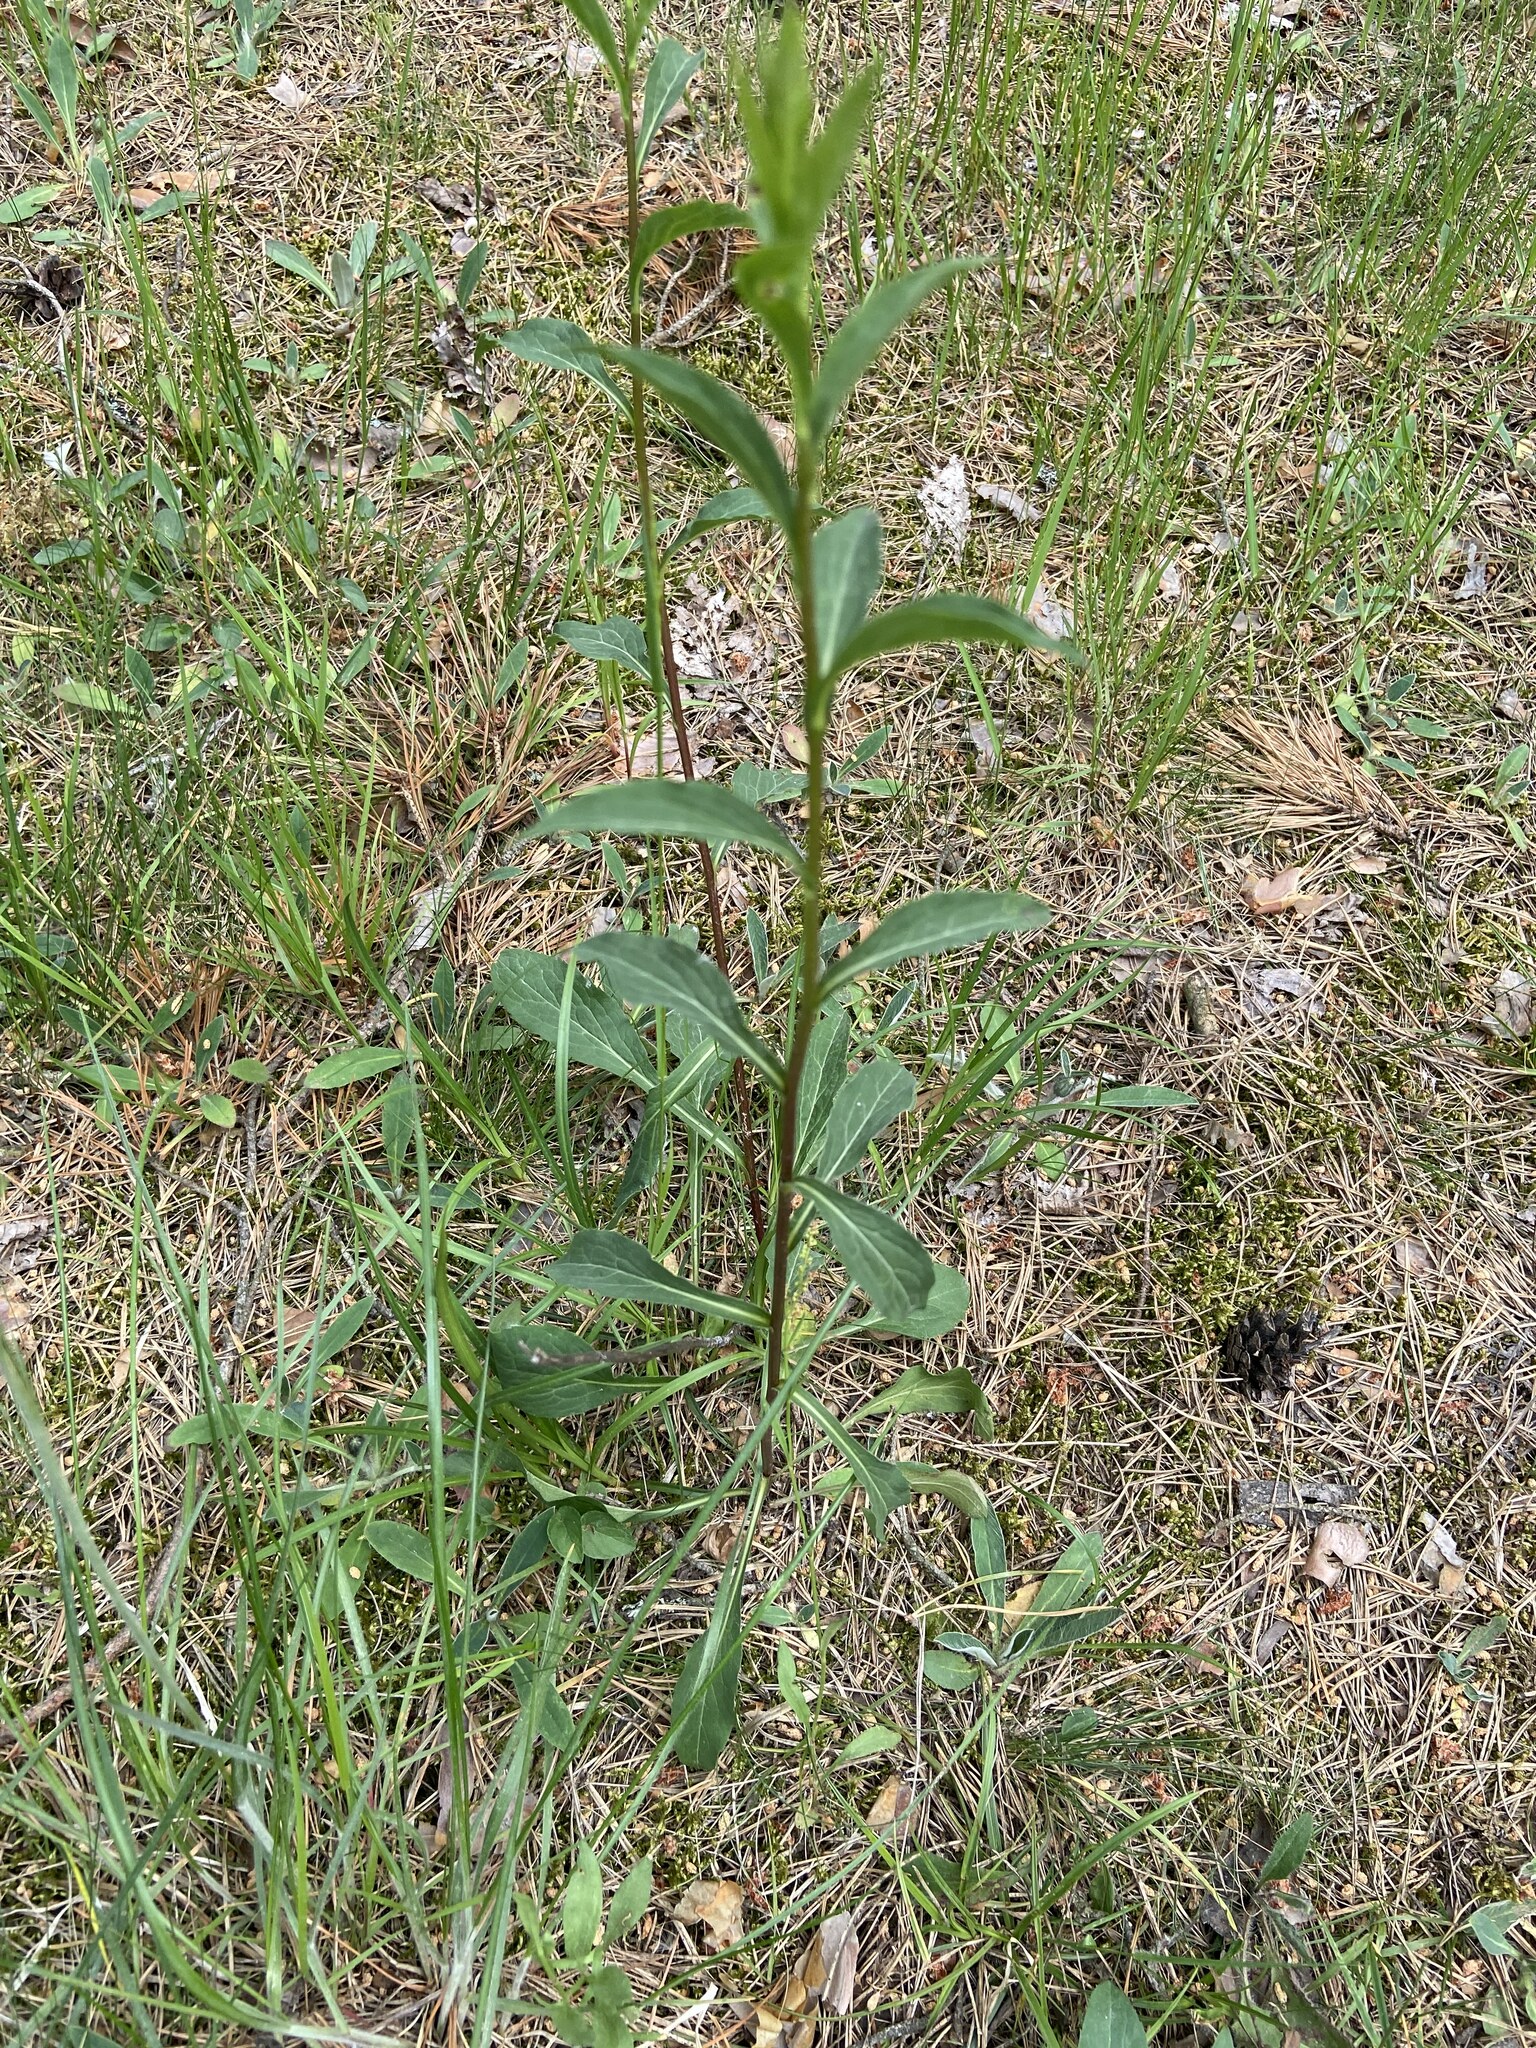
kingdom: Plantae
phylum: Tracheophyta
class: Magnoliopsida
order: Asterales
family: Asteraceae
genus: Solidago
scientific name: Solidago virgaurea
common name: Goldenrod
